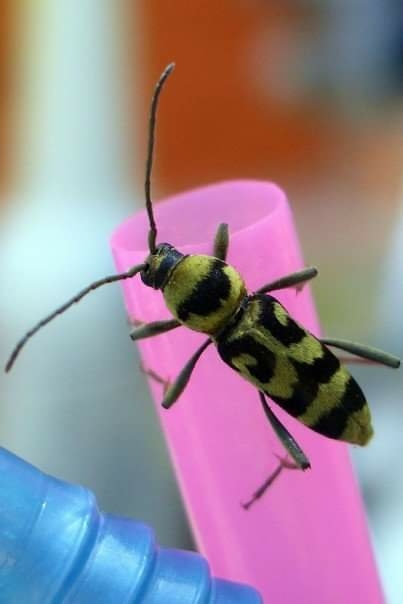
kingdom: Animalia
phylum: Arthropoda
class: Insecta
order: Coleoptera
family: Cerambycidae
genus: Chlorophorus
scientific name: Chlorophorus varius
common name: Grape wood borer
